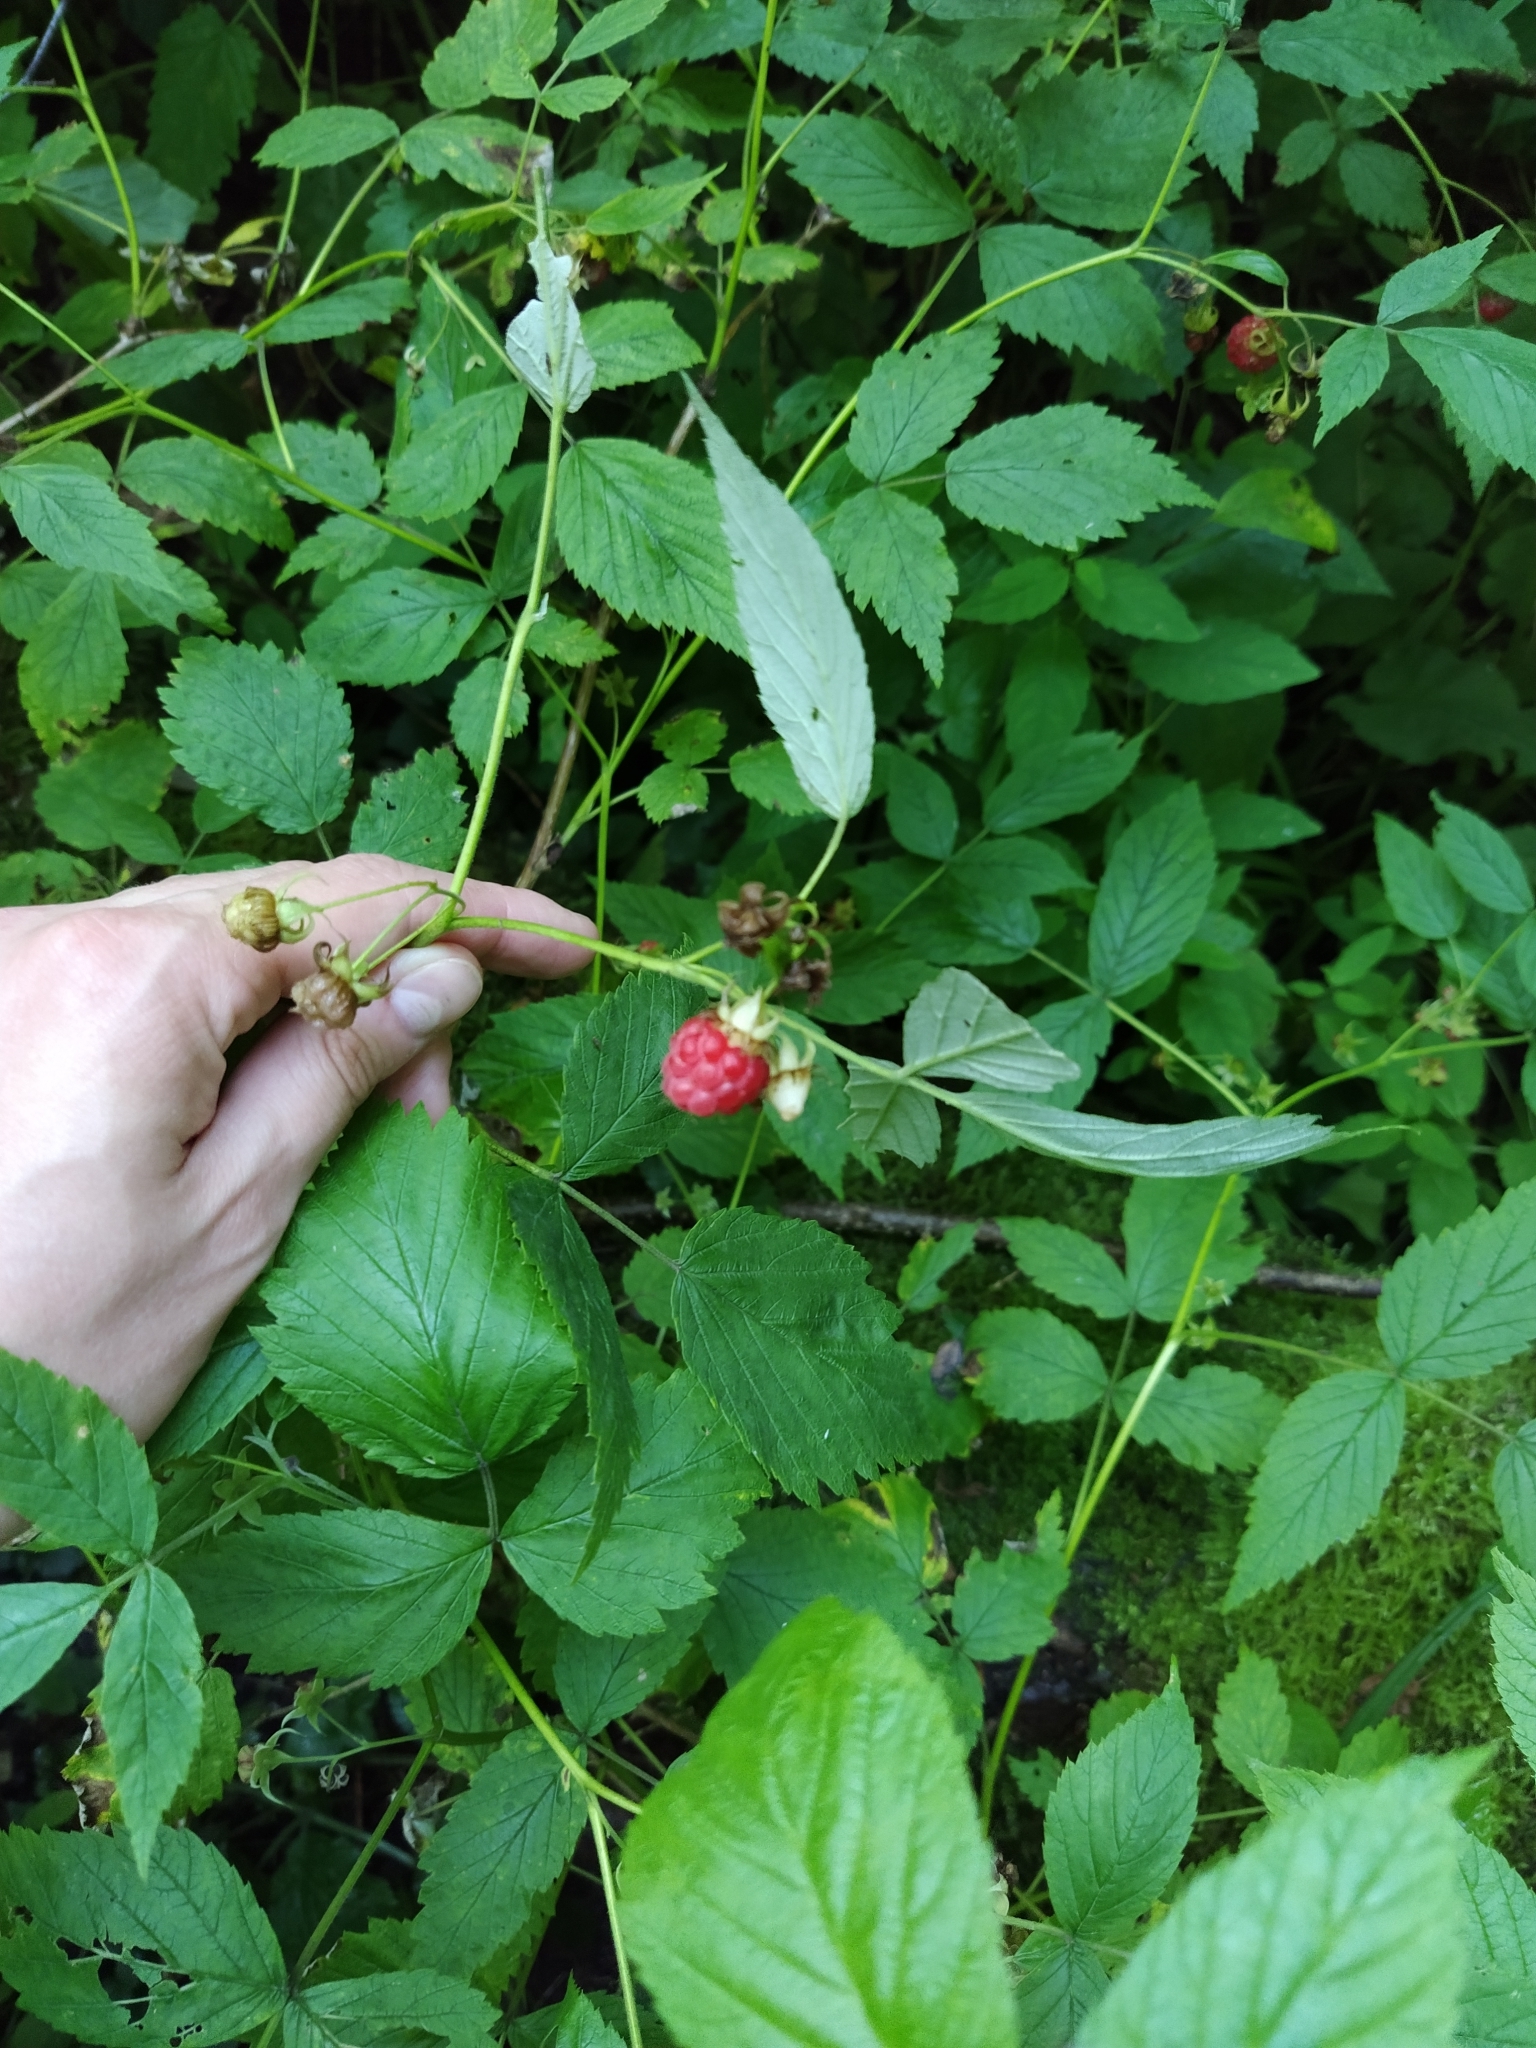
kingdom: Plantae
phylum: Tracheophyta
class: Magnoliopsida
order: Rosales
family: Rosaceae
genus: Rubus
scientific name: Rubus idaeus
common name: Raspberry
